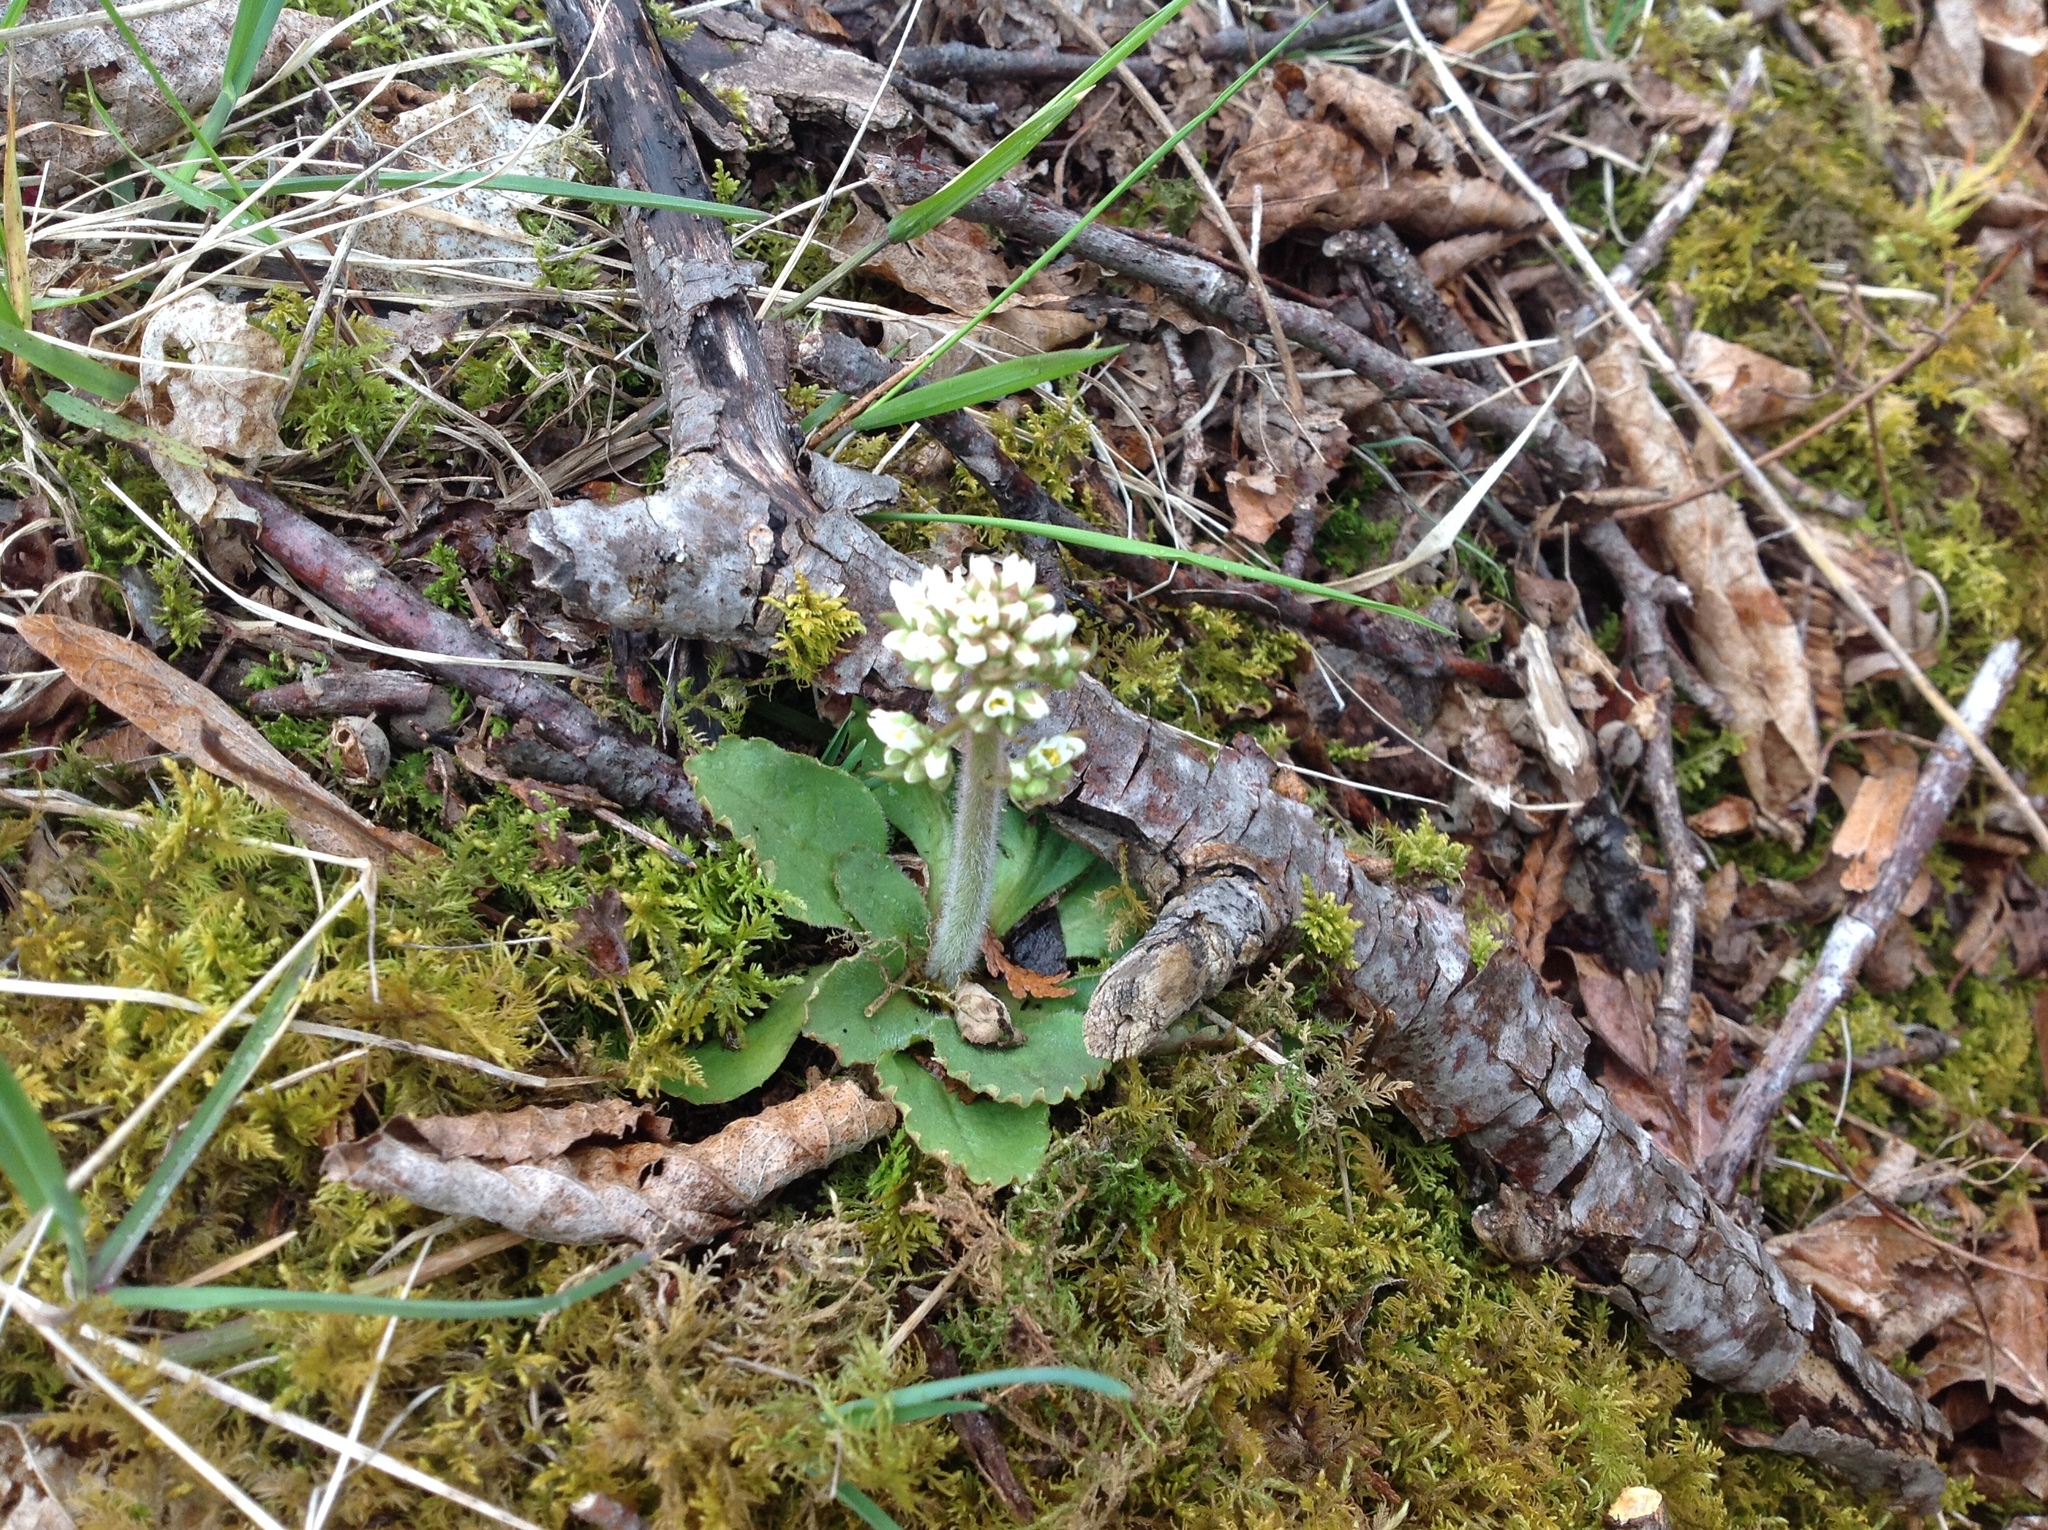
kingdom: Plantae
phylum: Tracheophyta
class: Magnoliopsida
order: Saxifragales
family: Saxifragaceae
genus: Micranthes
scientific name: Micranthes virginiensis
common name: Early saxifrage
